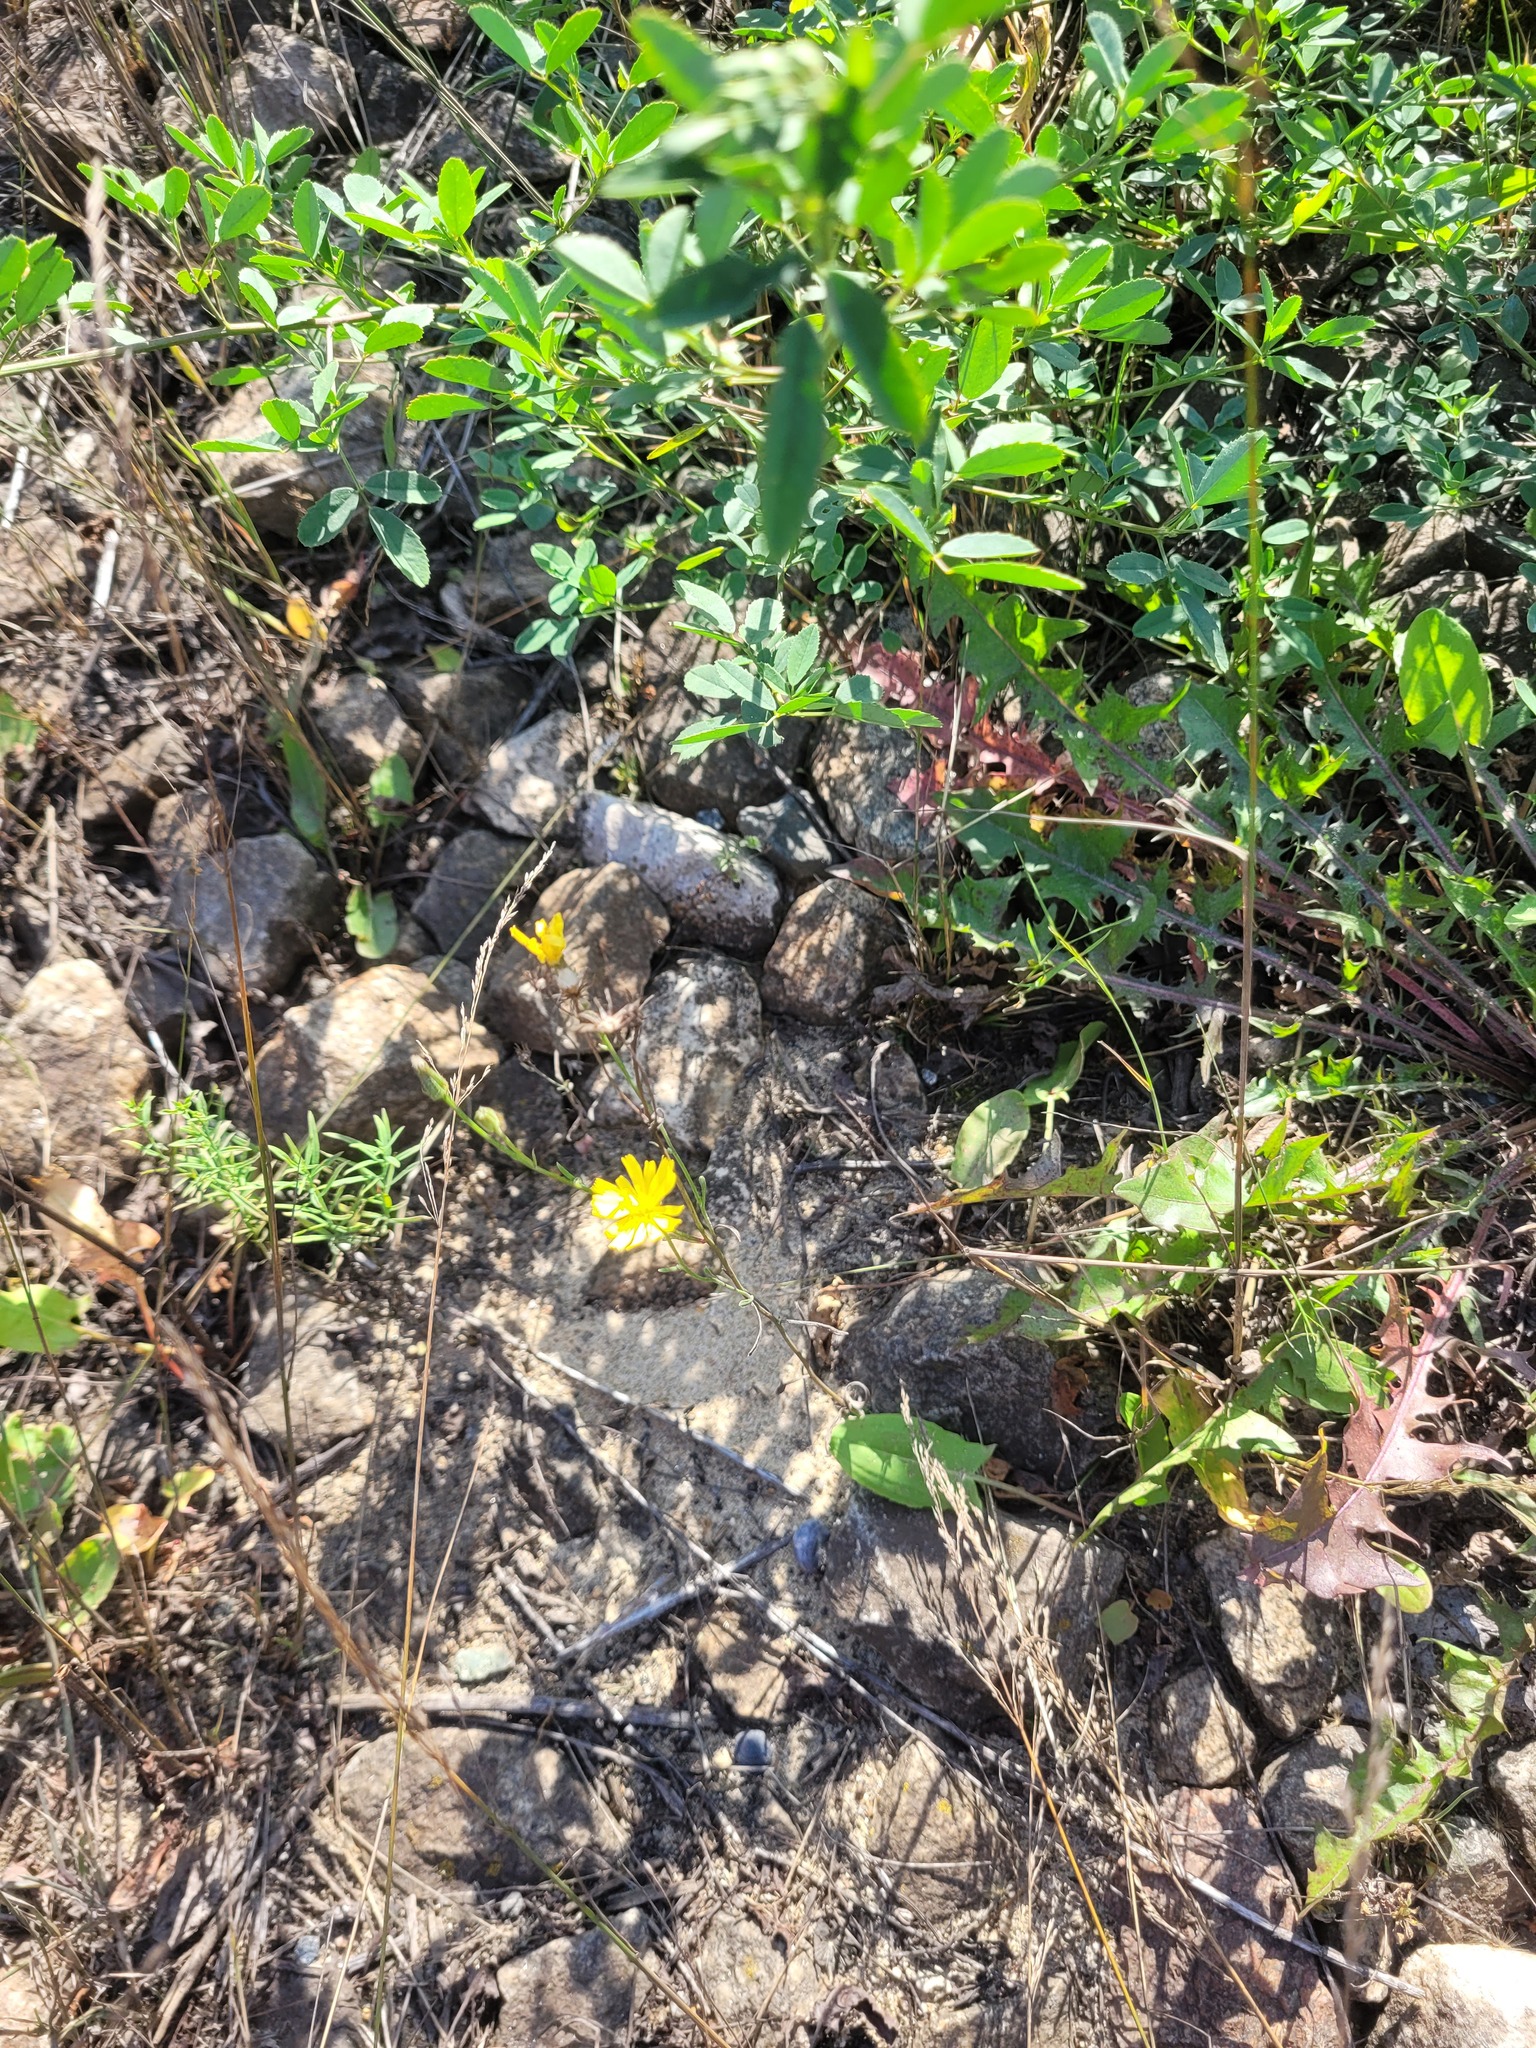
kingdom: Plantae
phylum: Tracheophyta
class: Magnoliopsida
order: Asterales
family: Asteraceae
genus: Crepis
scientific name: Crepis tectorum
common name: Narrow-leaved hawk's-beard
